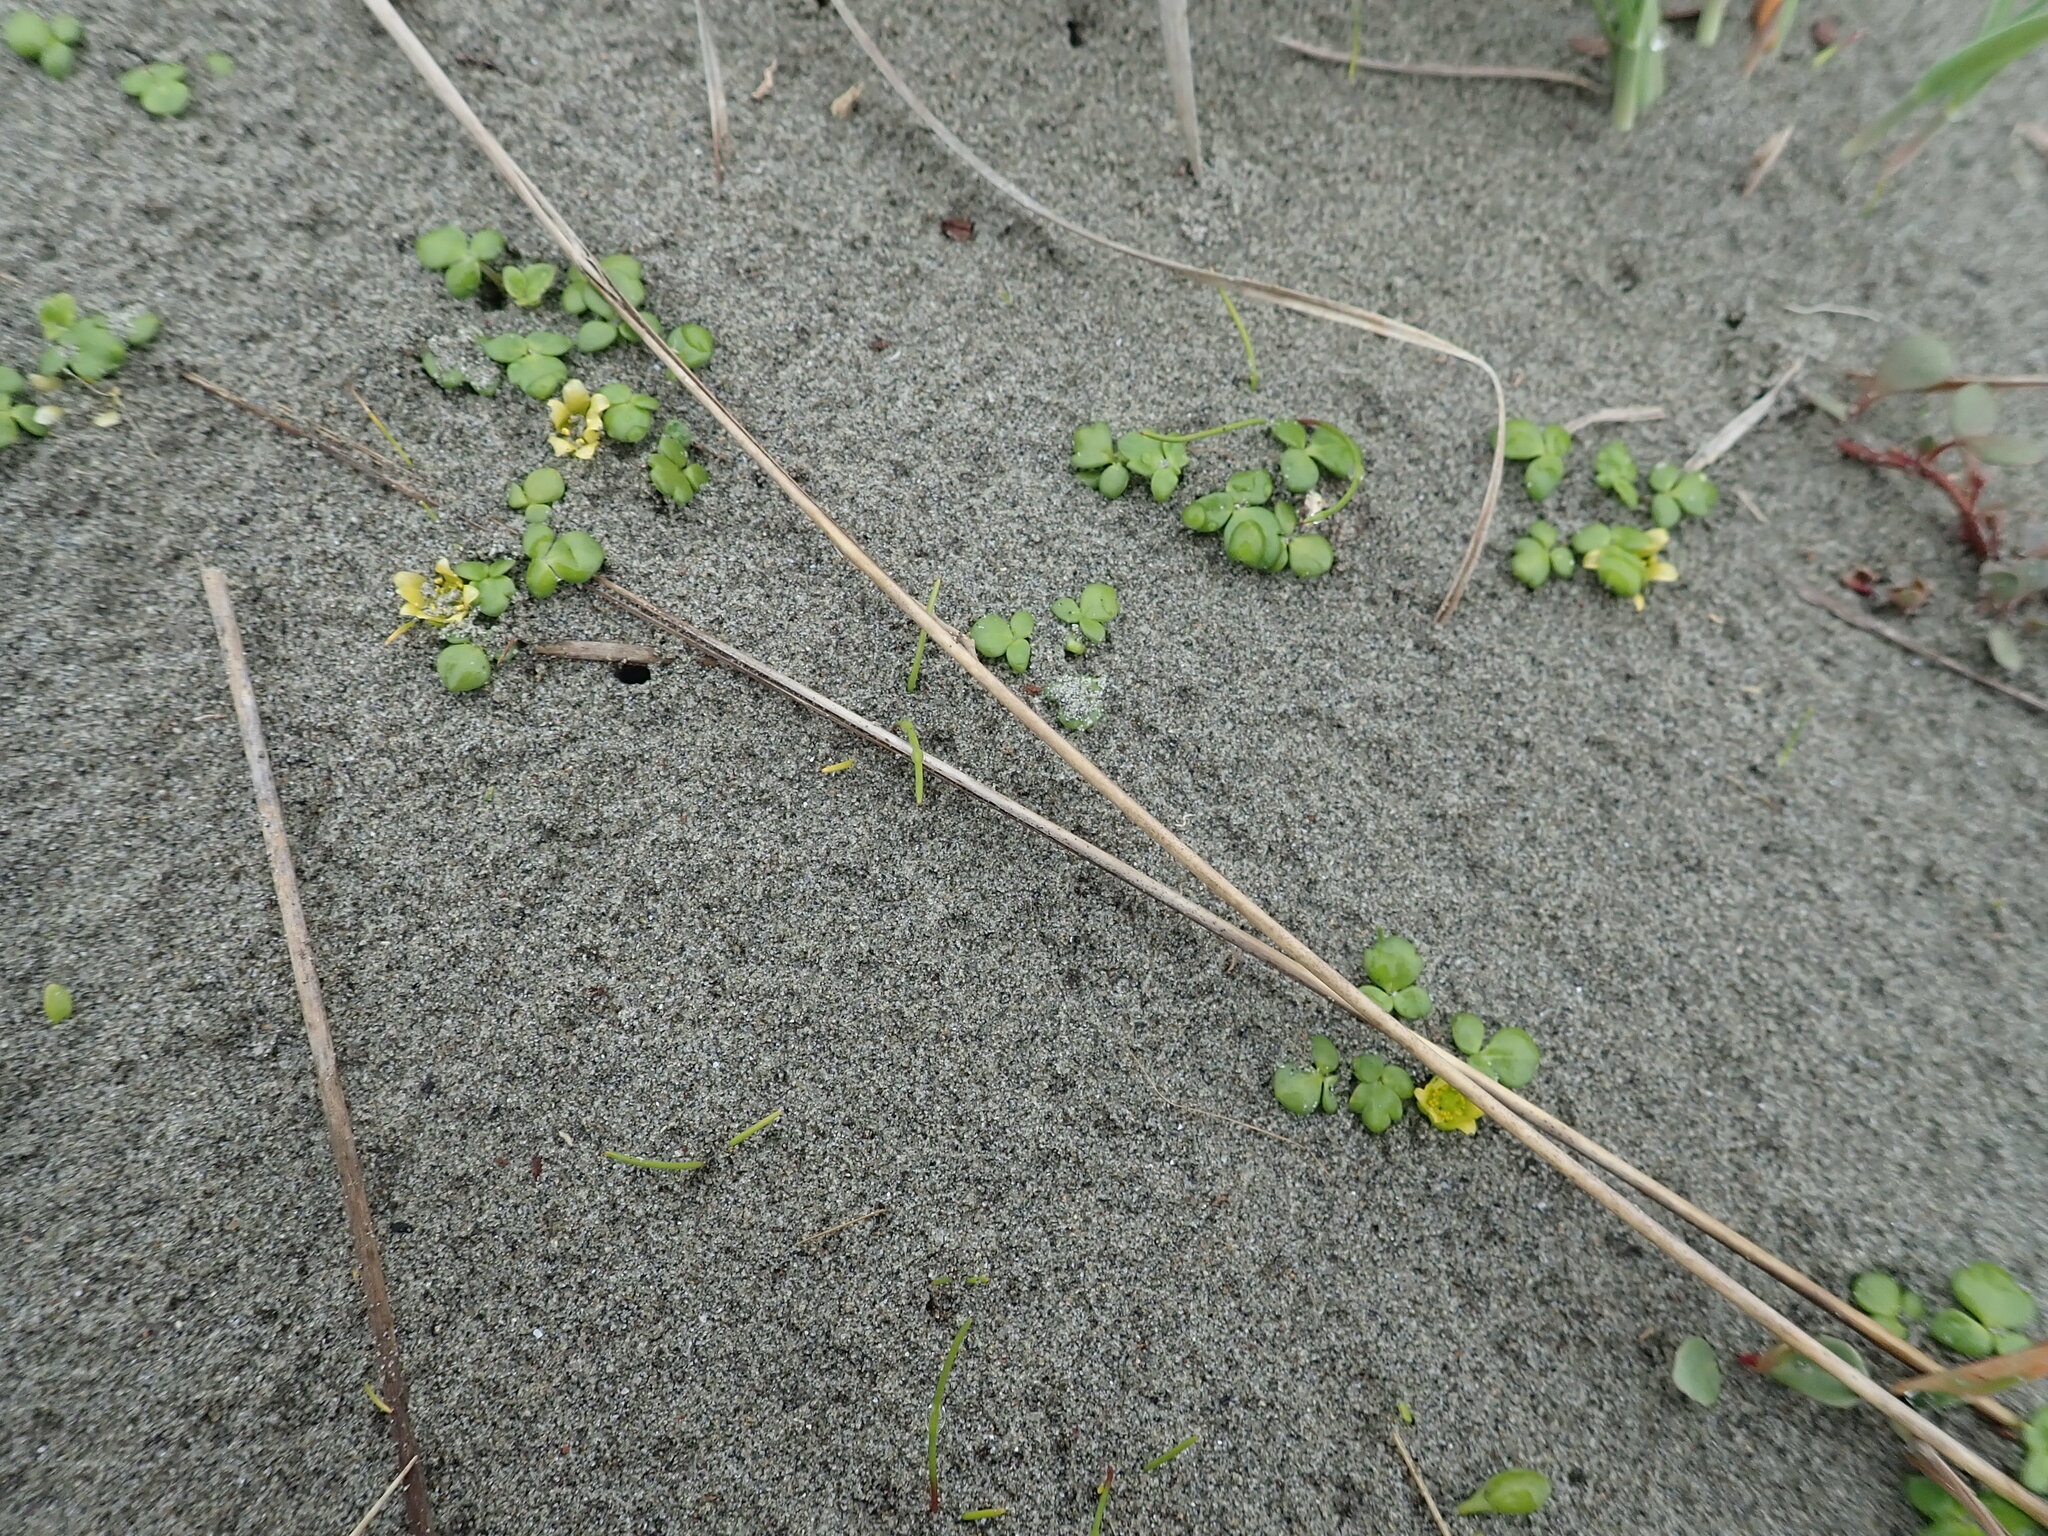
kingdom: Plantae
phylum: Tracheophyta
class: Magnoliopsida
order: Ranunculales
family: Ranunculaceae
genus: Ranunculus
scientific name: Ranunculus acaulis
